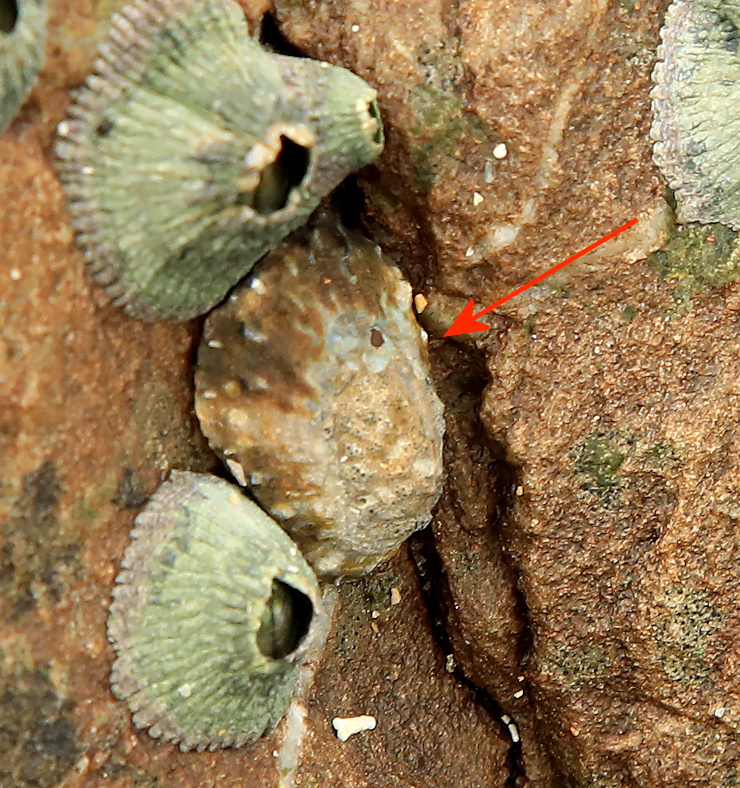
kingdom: Animalia
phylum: Mollusca
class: Gastropoda
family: Patellidae
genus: Scutellastra
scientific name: Scutellastra granularis
